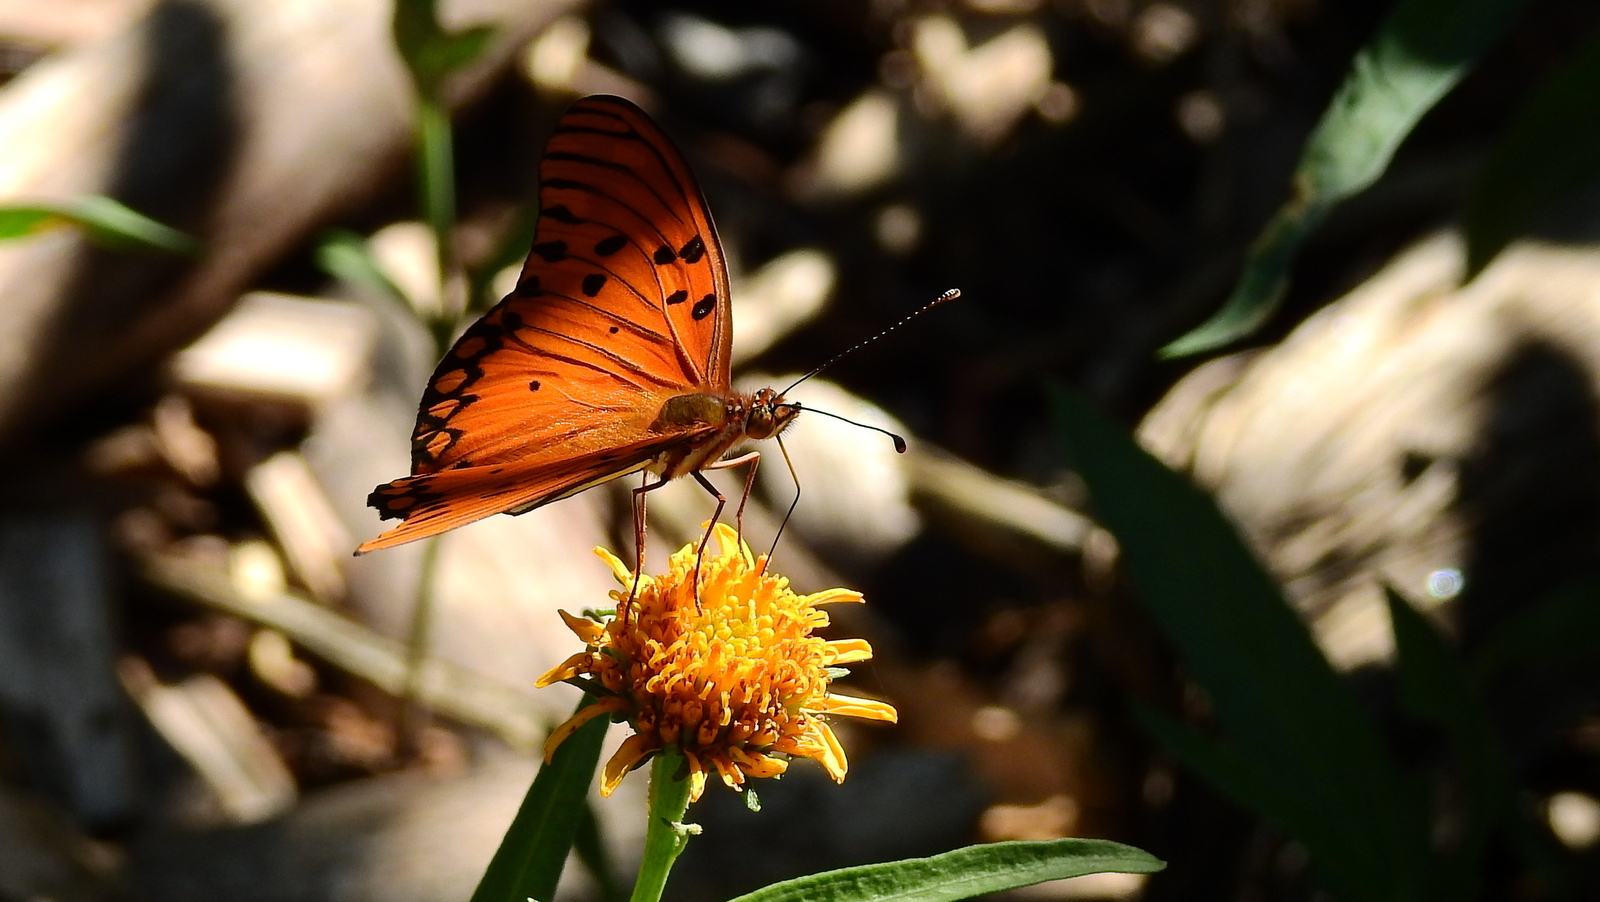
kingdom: Animalia
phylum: Arthropoda
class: Insecta
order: Lepidoptera
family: Nymphalidae
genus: Dione
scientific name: Dione vanillae
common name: Gulf fritillary
